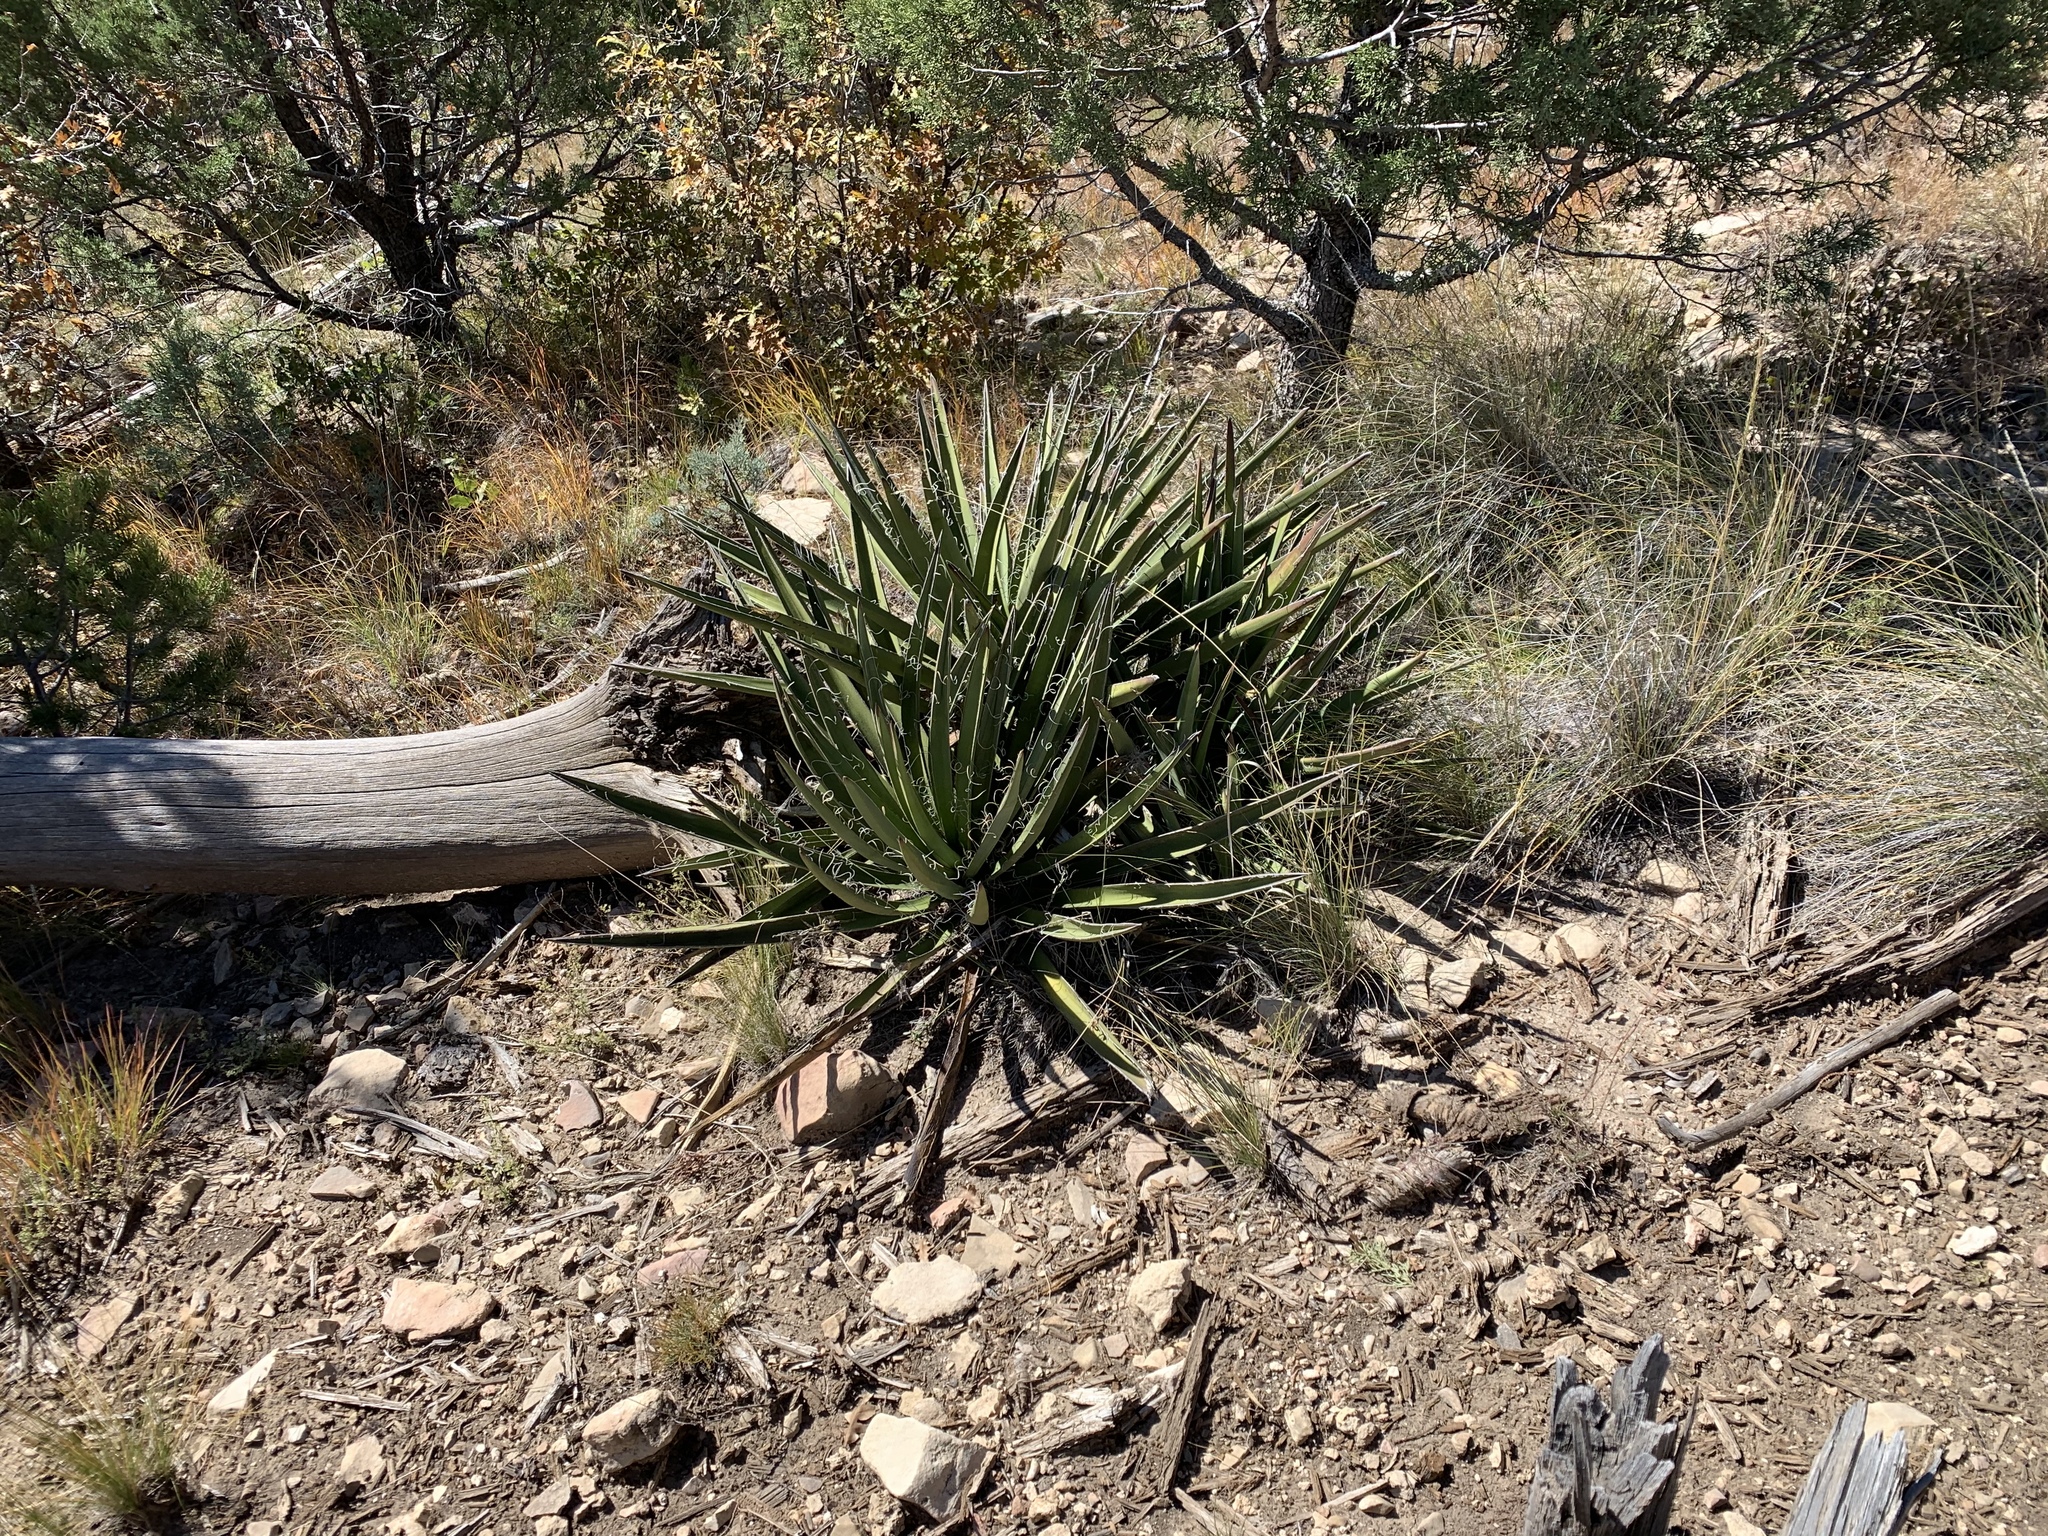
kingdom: Plantae
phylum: Tracheophyta
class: Liliopsida
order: Asparagales
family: Asparagaceae
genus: Yucca
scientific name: Yucca baccata
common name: Banana yucca
